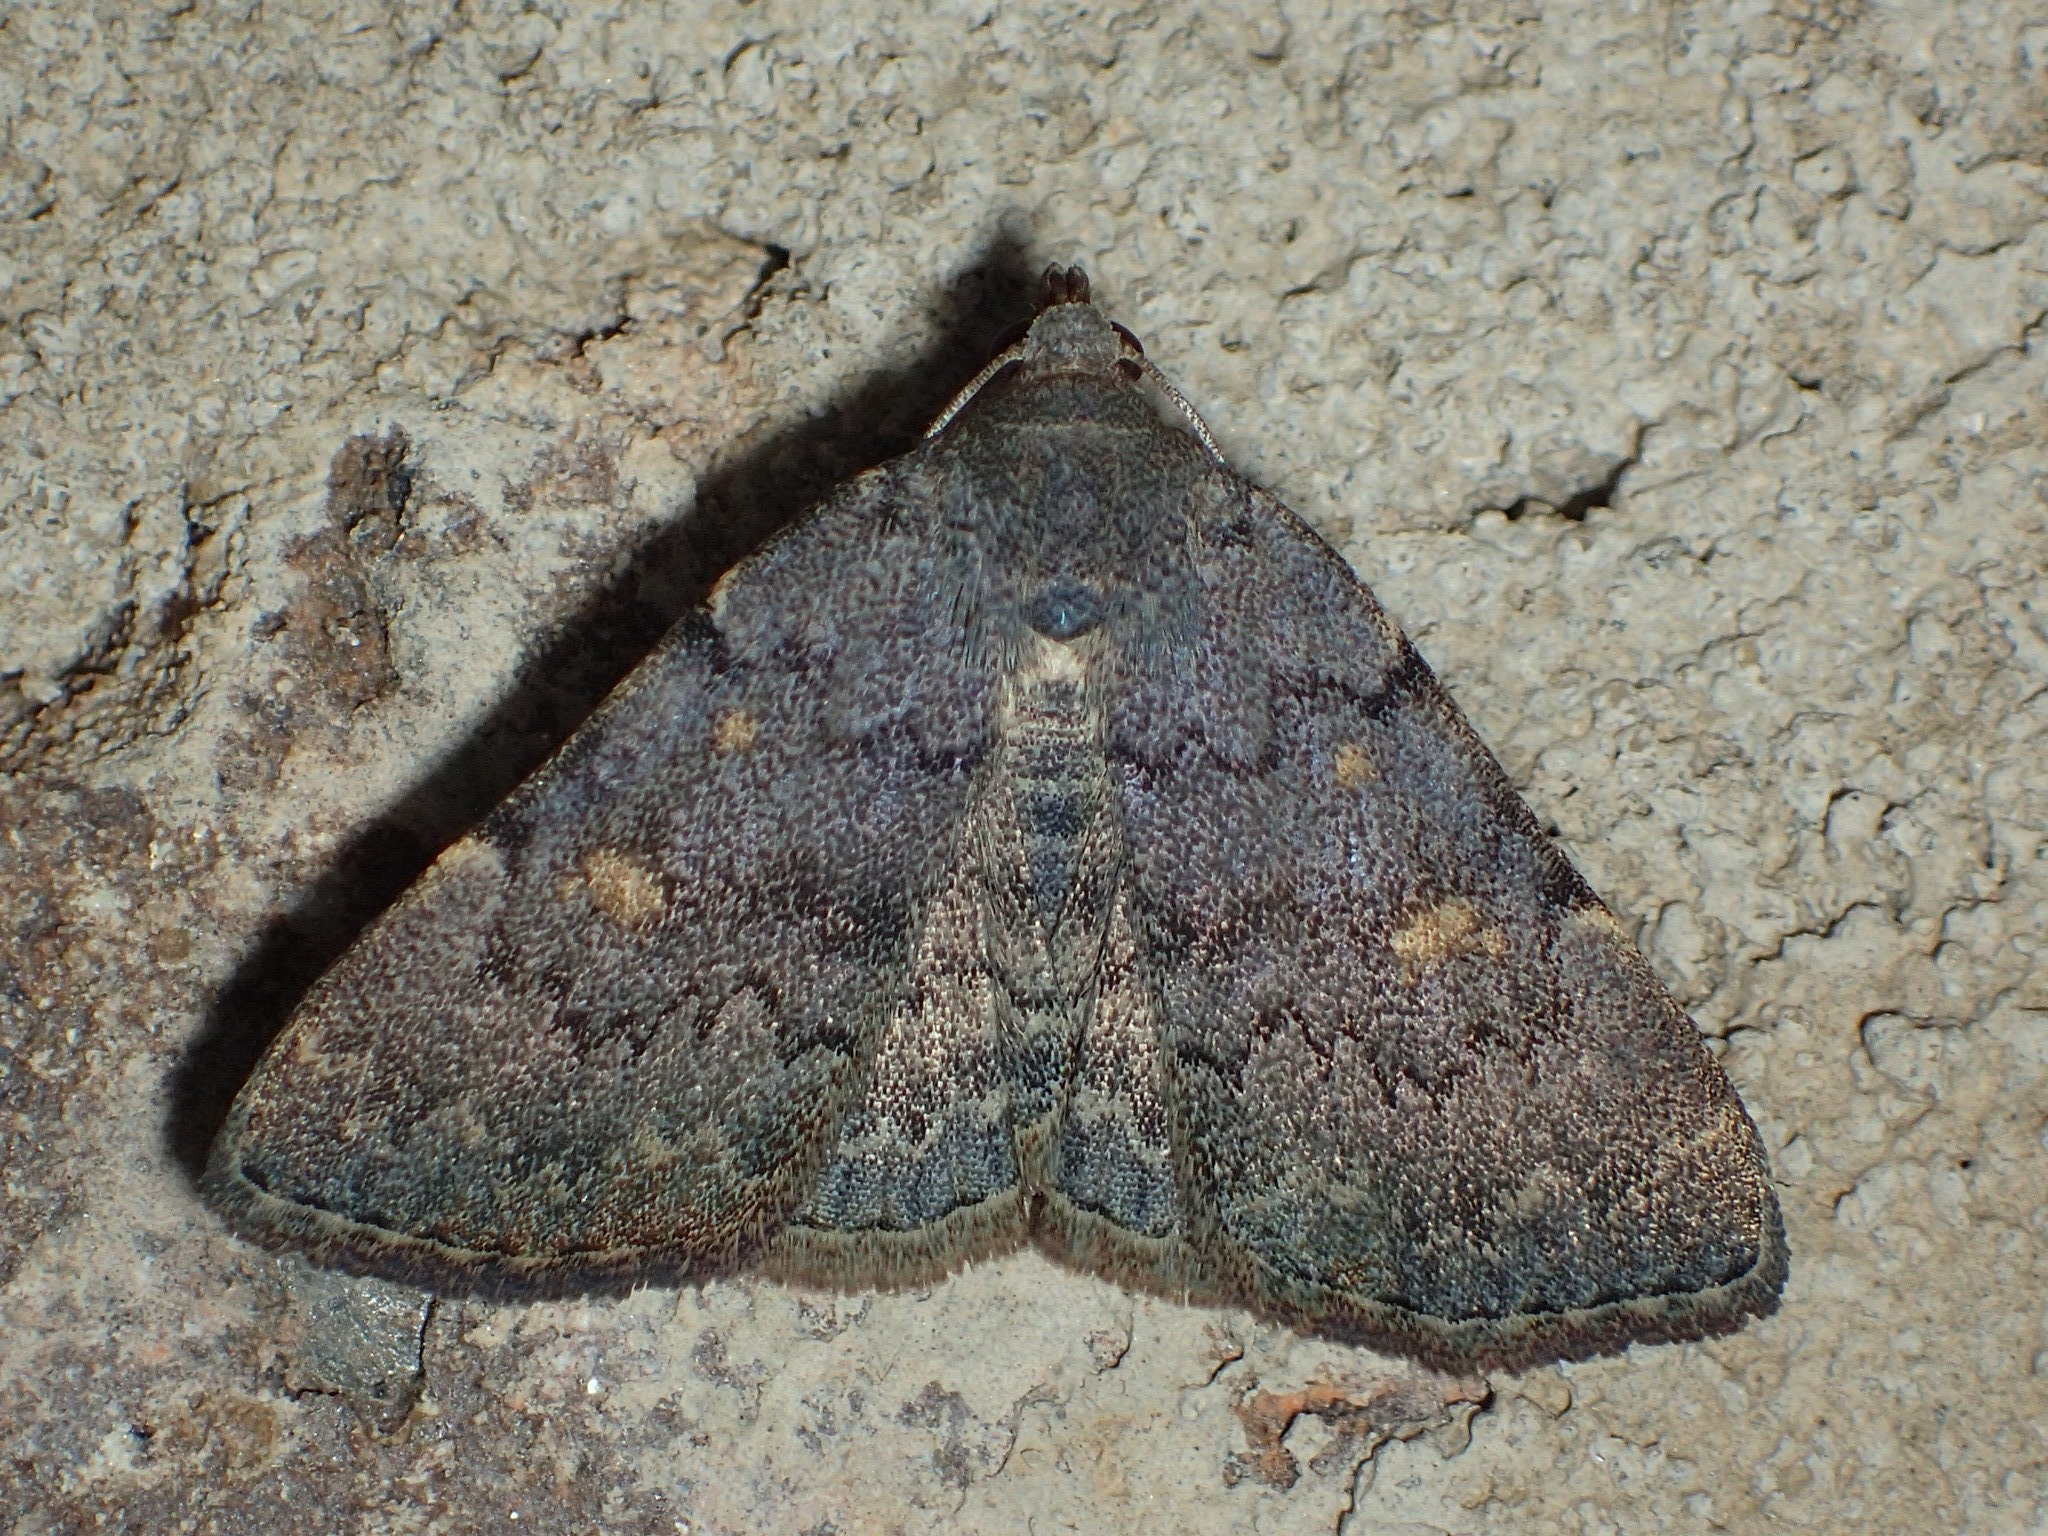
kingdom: Animalia
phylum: Arthropoda
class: Insecta
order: Lepidoptera
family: Erebidae
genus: Idia
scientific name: Idia aemula
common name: Common idia moth
